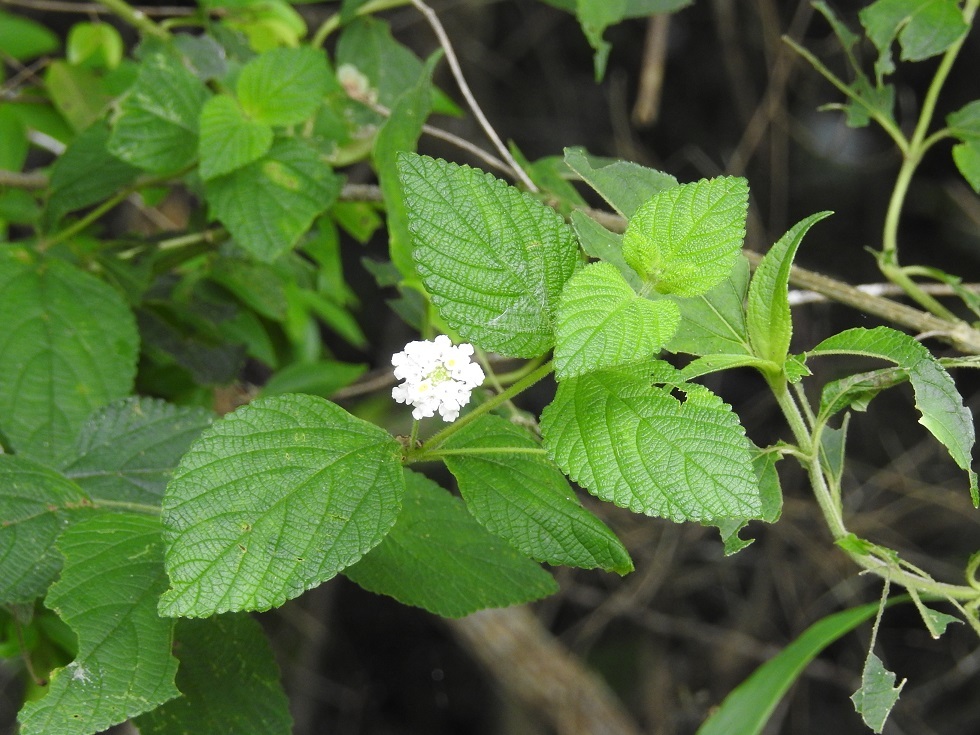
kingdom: Plantae
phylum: Tracheophyta
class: Magnoliopsida
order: Lamiales
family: Verbenaceae
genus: Lantana
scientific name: Lantana velutina
